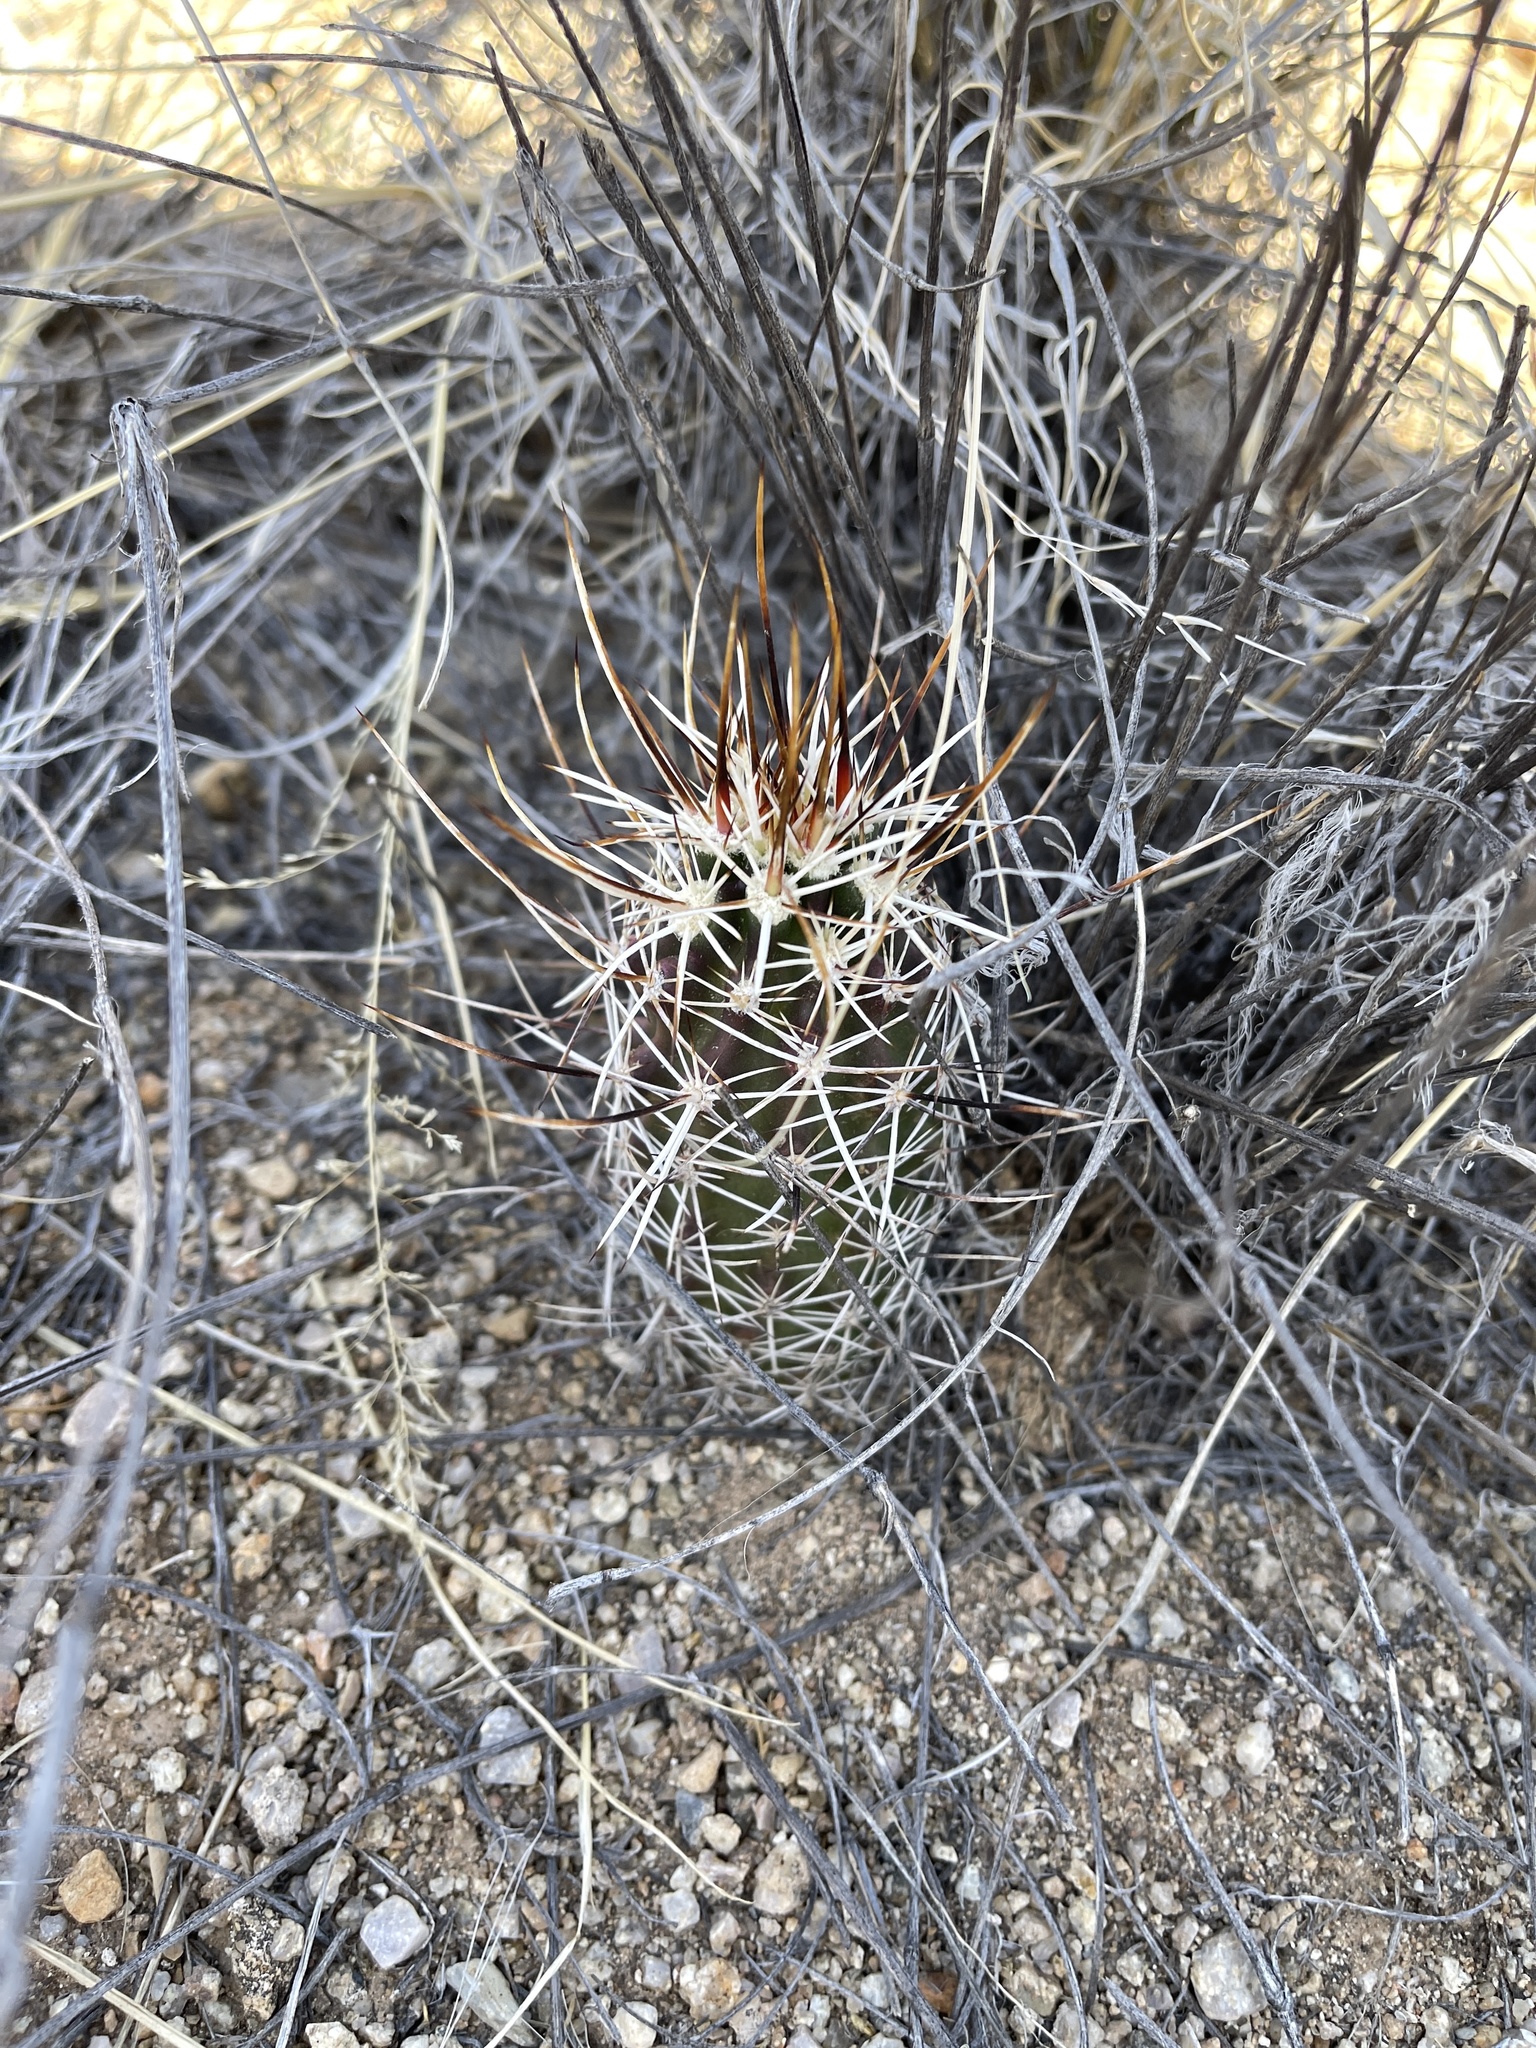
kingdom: Plantae
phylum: Tracheophyta
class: Magnoliopsida
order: Caryophyllales
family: Cactaceae
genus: Echinocereus
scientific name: Echinocereus fendleri
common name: Fendler's hedgehog cactus
